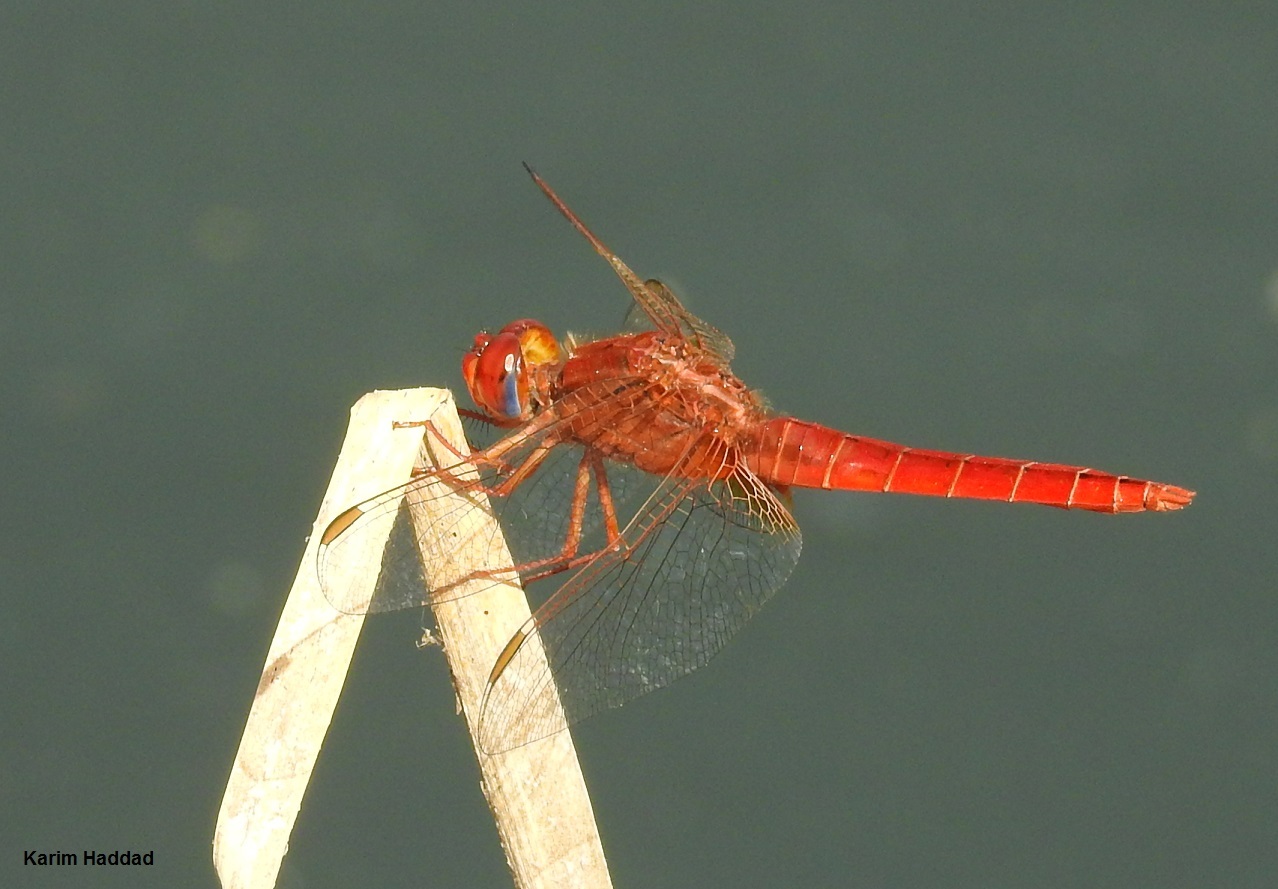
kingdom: Animalia
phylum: Arthropoda
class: Insecta
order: Odonata
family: Libellulidae
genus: Crocothemis
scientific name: Crocothemis erythraea
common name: Scarlet dragonfly
